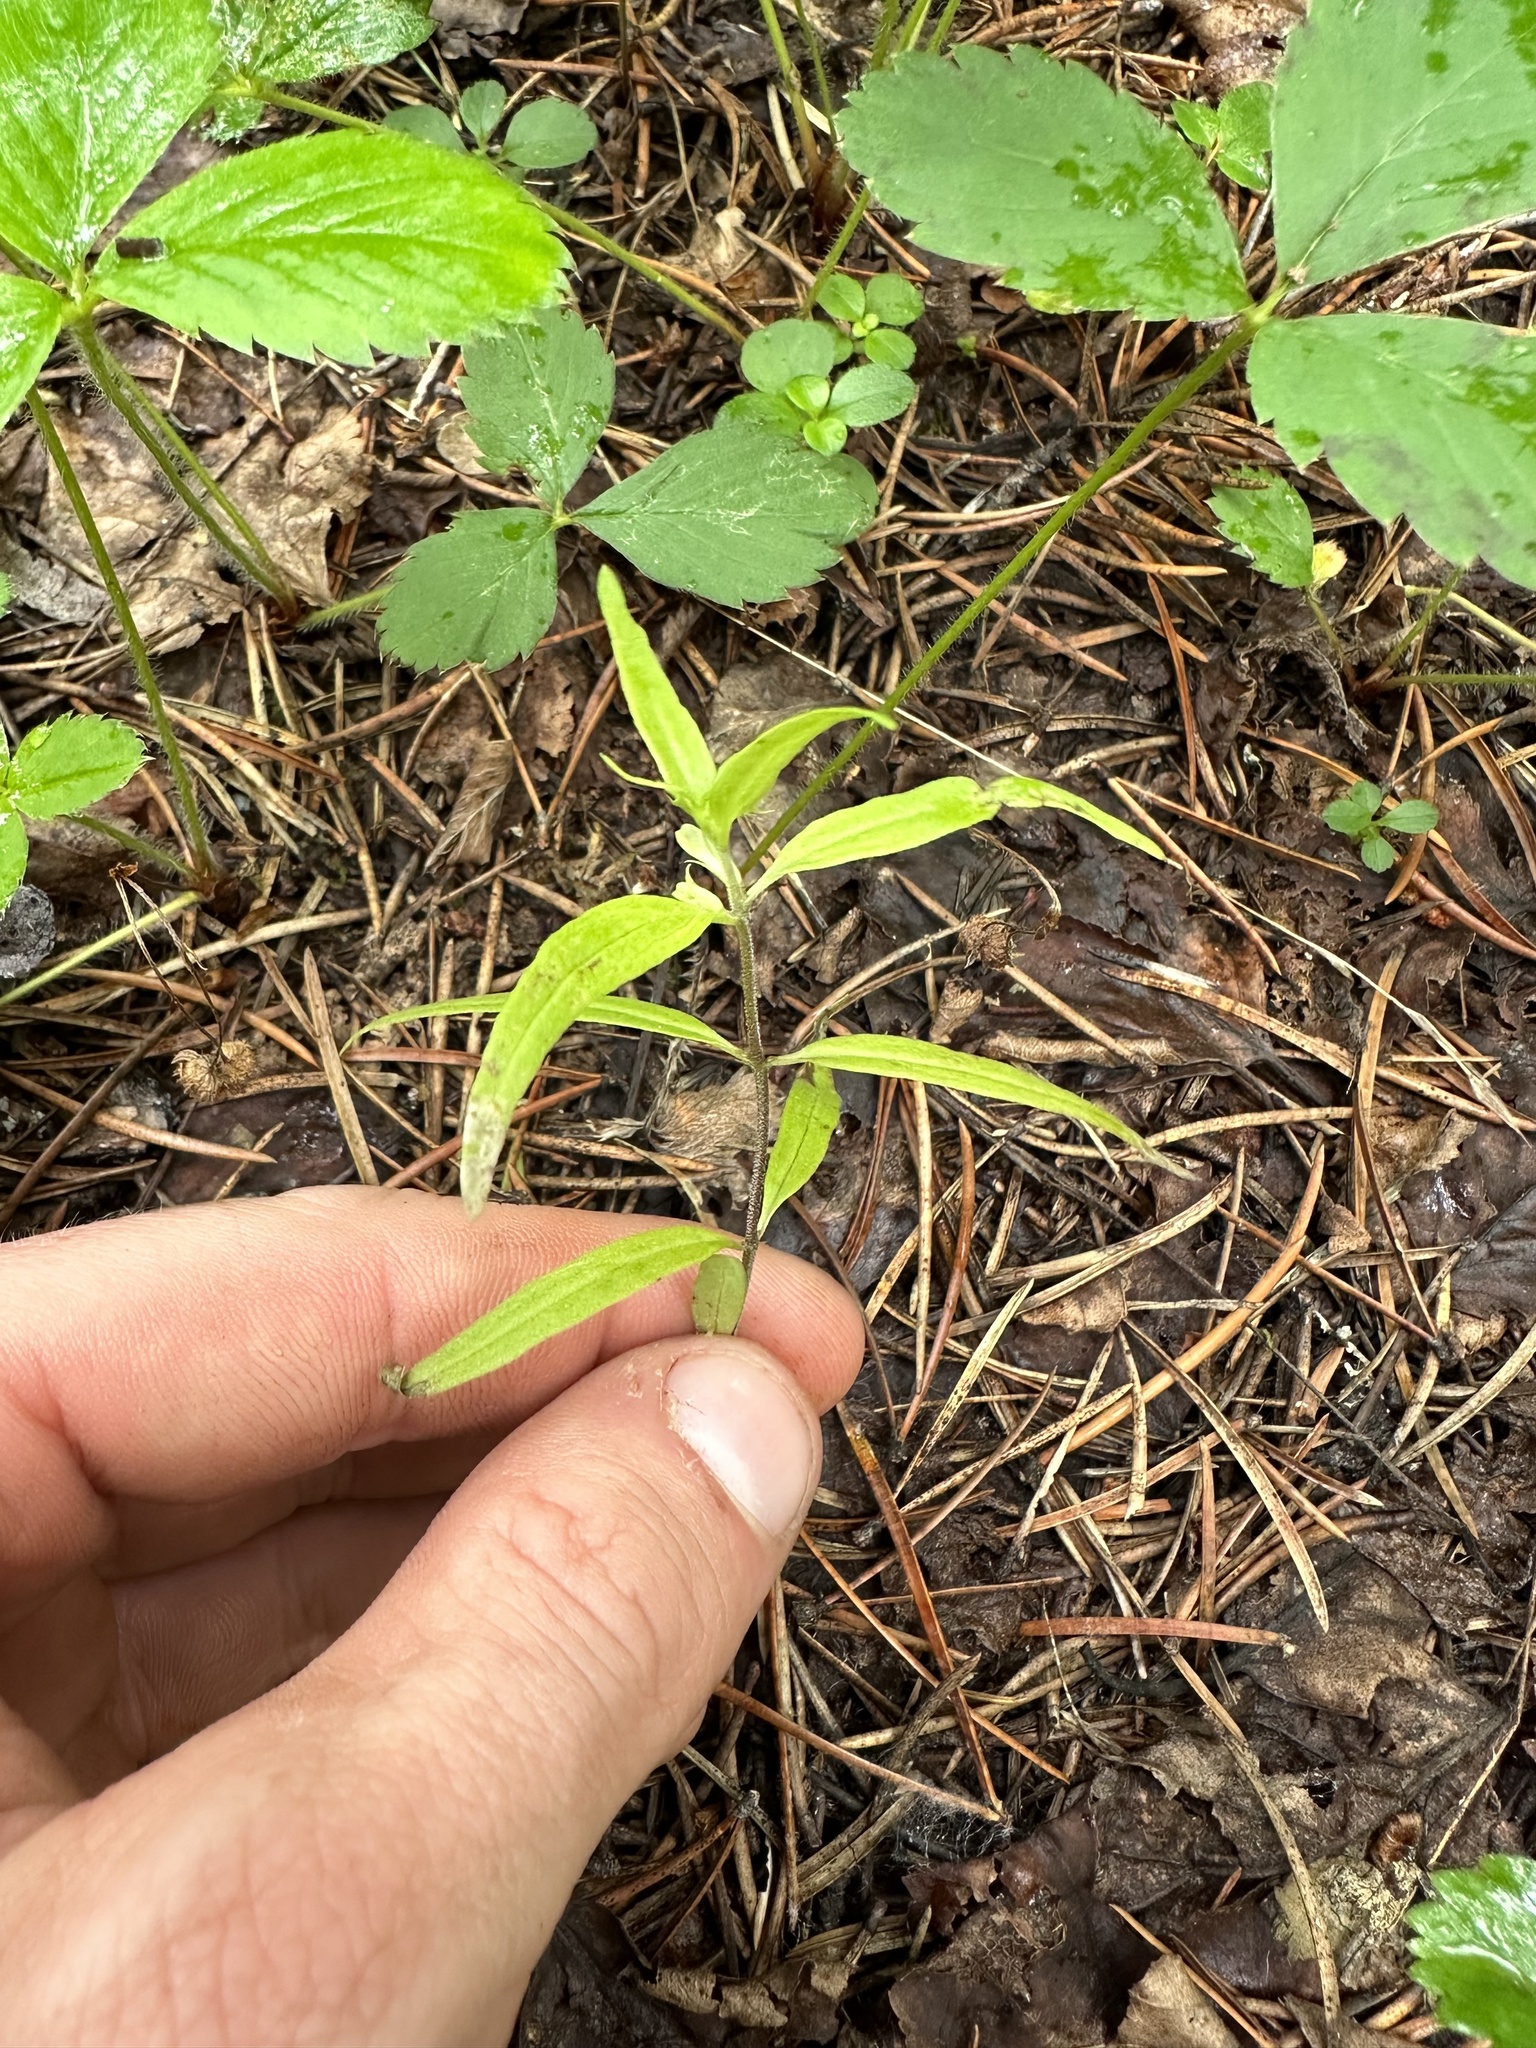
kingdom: Plantae
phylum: Tracheophyta
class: Magnoliopsida
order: Lamiales
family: Orobanchaceae
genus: Melampyrum
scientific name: Melampyrum lineare
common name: American cow-wheat
